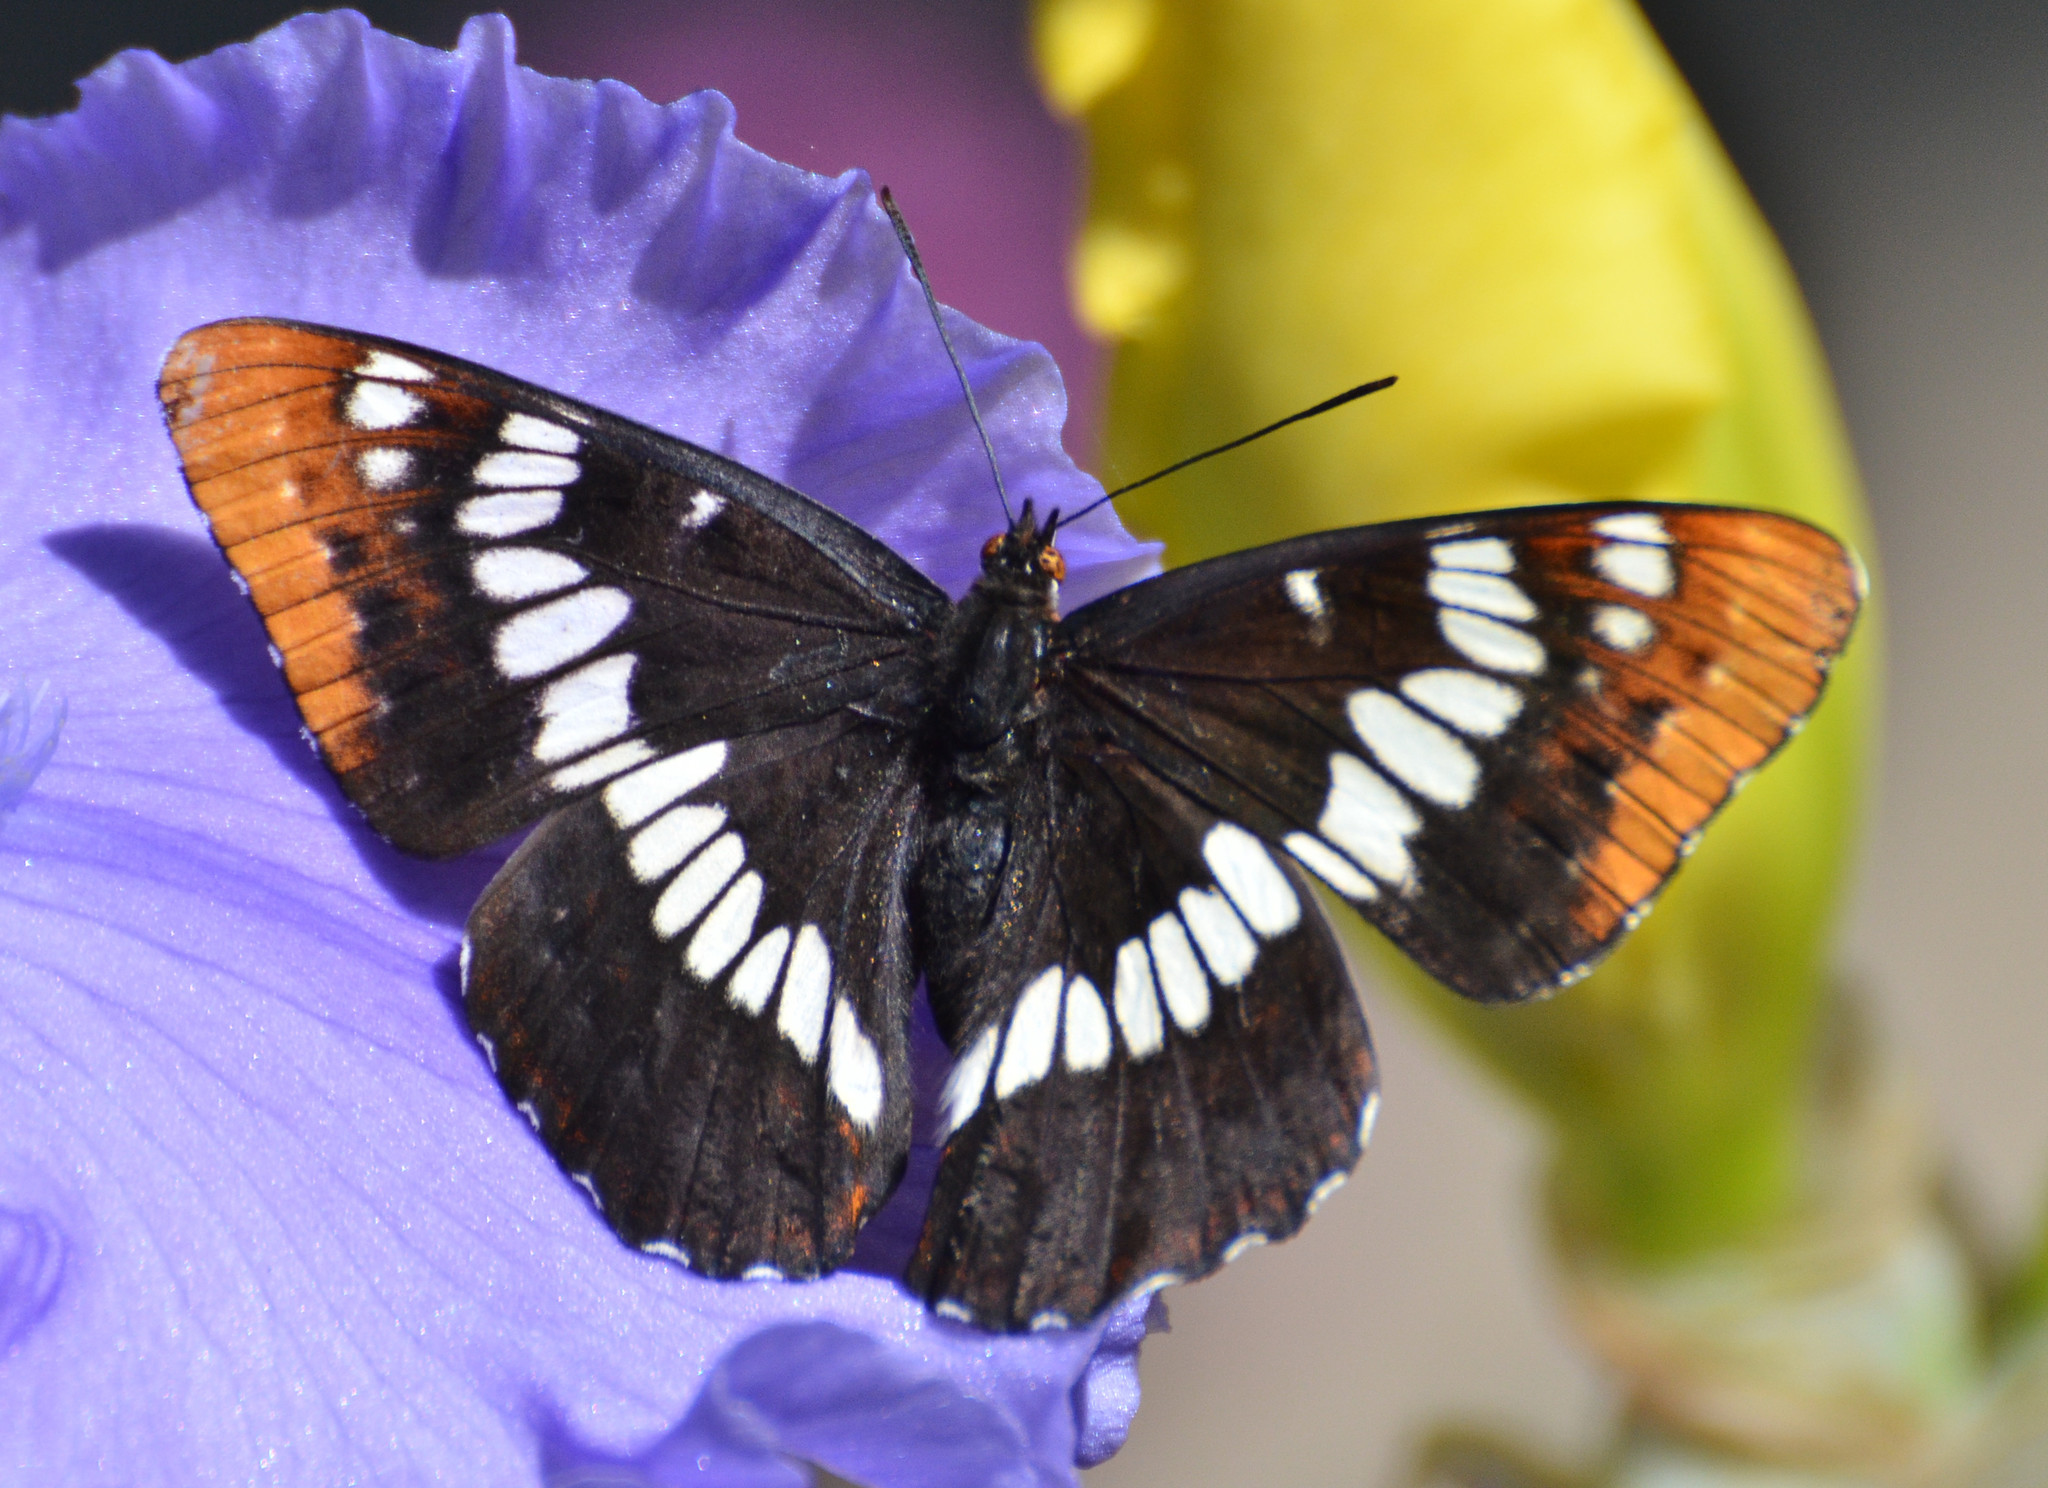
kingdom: Animalia
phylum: Arthropoda
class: Insecta
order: Lepidoptera
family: Nymphalidae
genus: Limenitis
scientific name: Limenitis lorquini
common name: Lorquin's admiral
